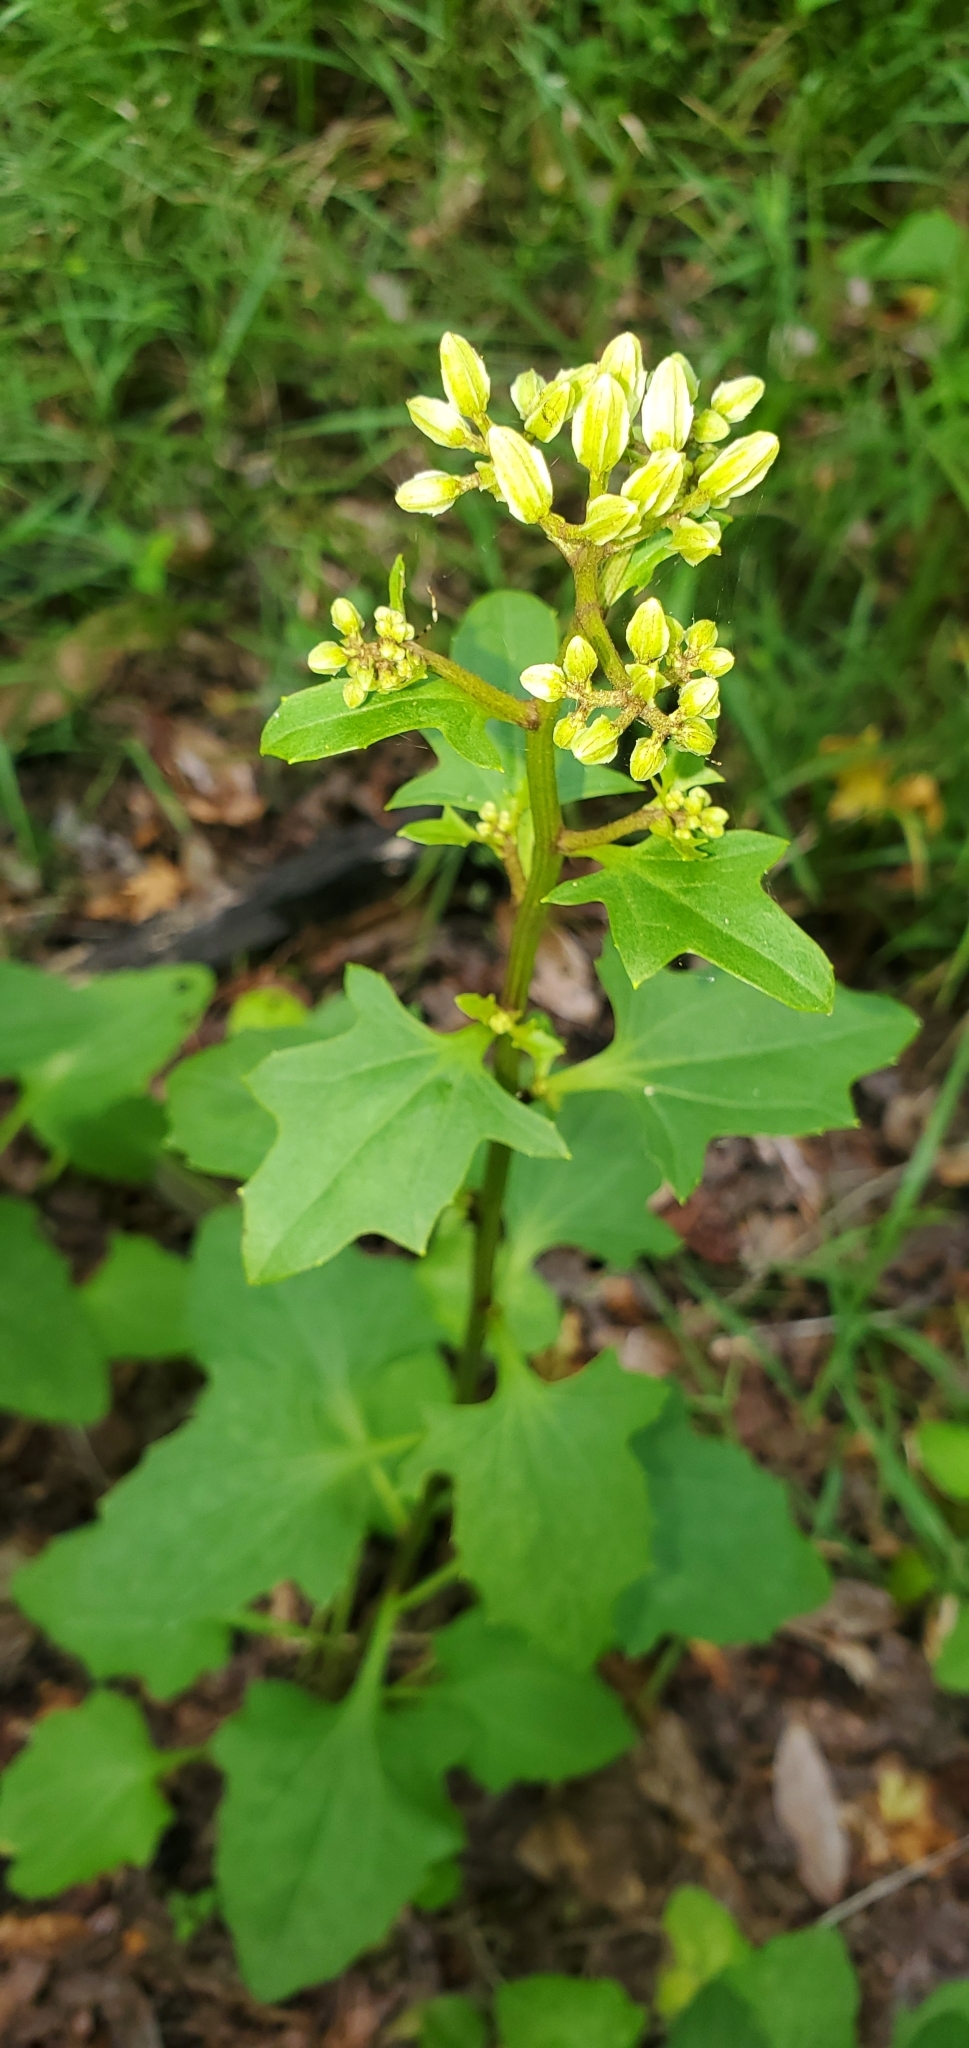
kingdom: Plantae
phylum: Tracheophyta
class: Magnoliopsida
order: Asterales
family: Asteraceae
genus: Arnoglossum
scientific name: Arnoglossum diversifolium
